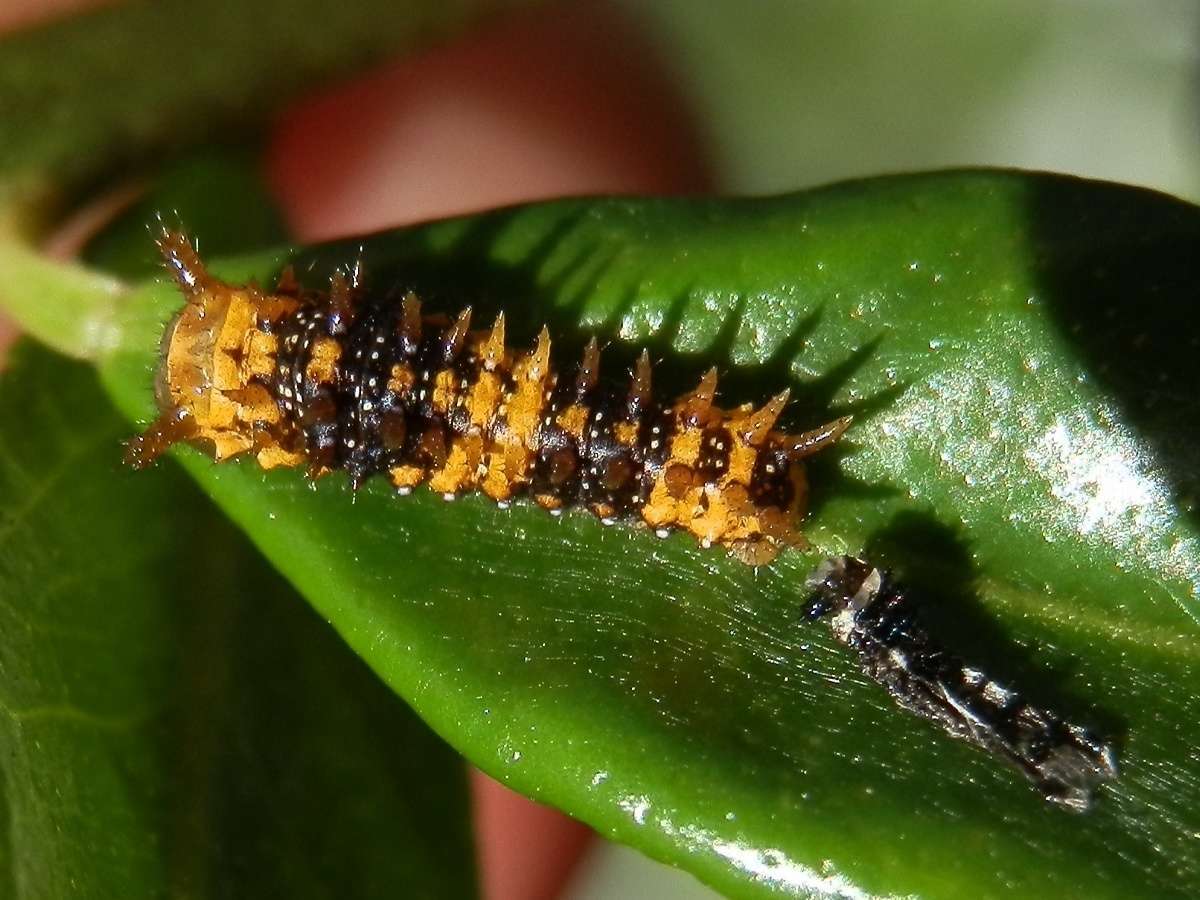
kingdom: Animalia
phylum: Arthropoda
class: Insecta
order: Lepidoptera
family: Papilionidae
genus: Papilio
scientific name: Papilio anactus
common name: Dingy swallowtail
